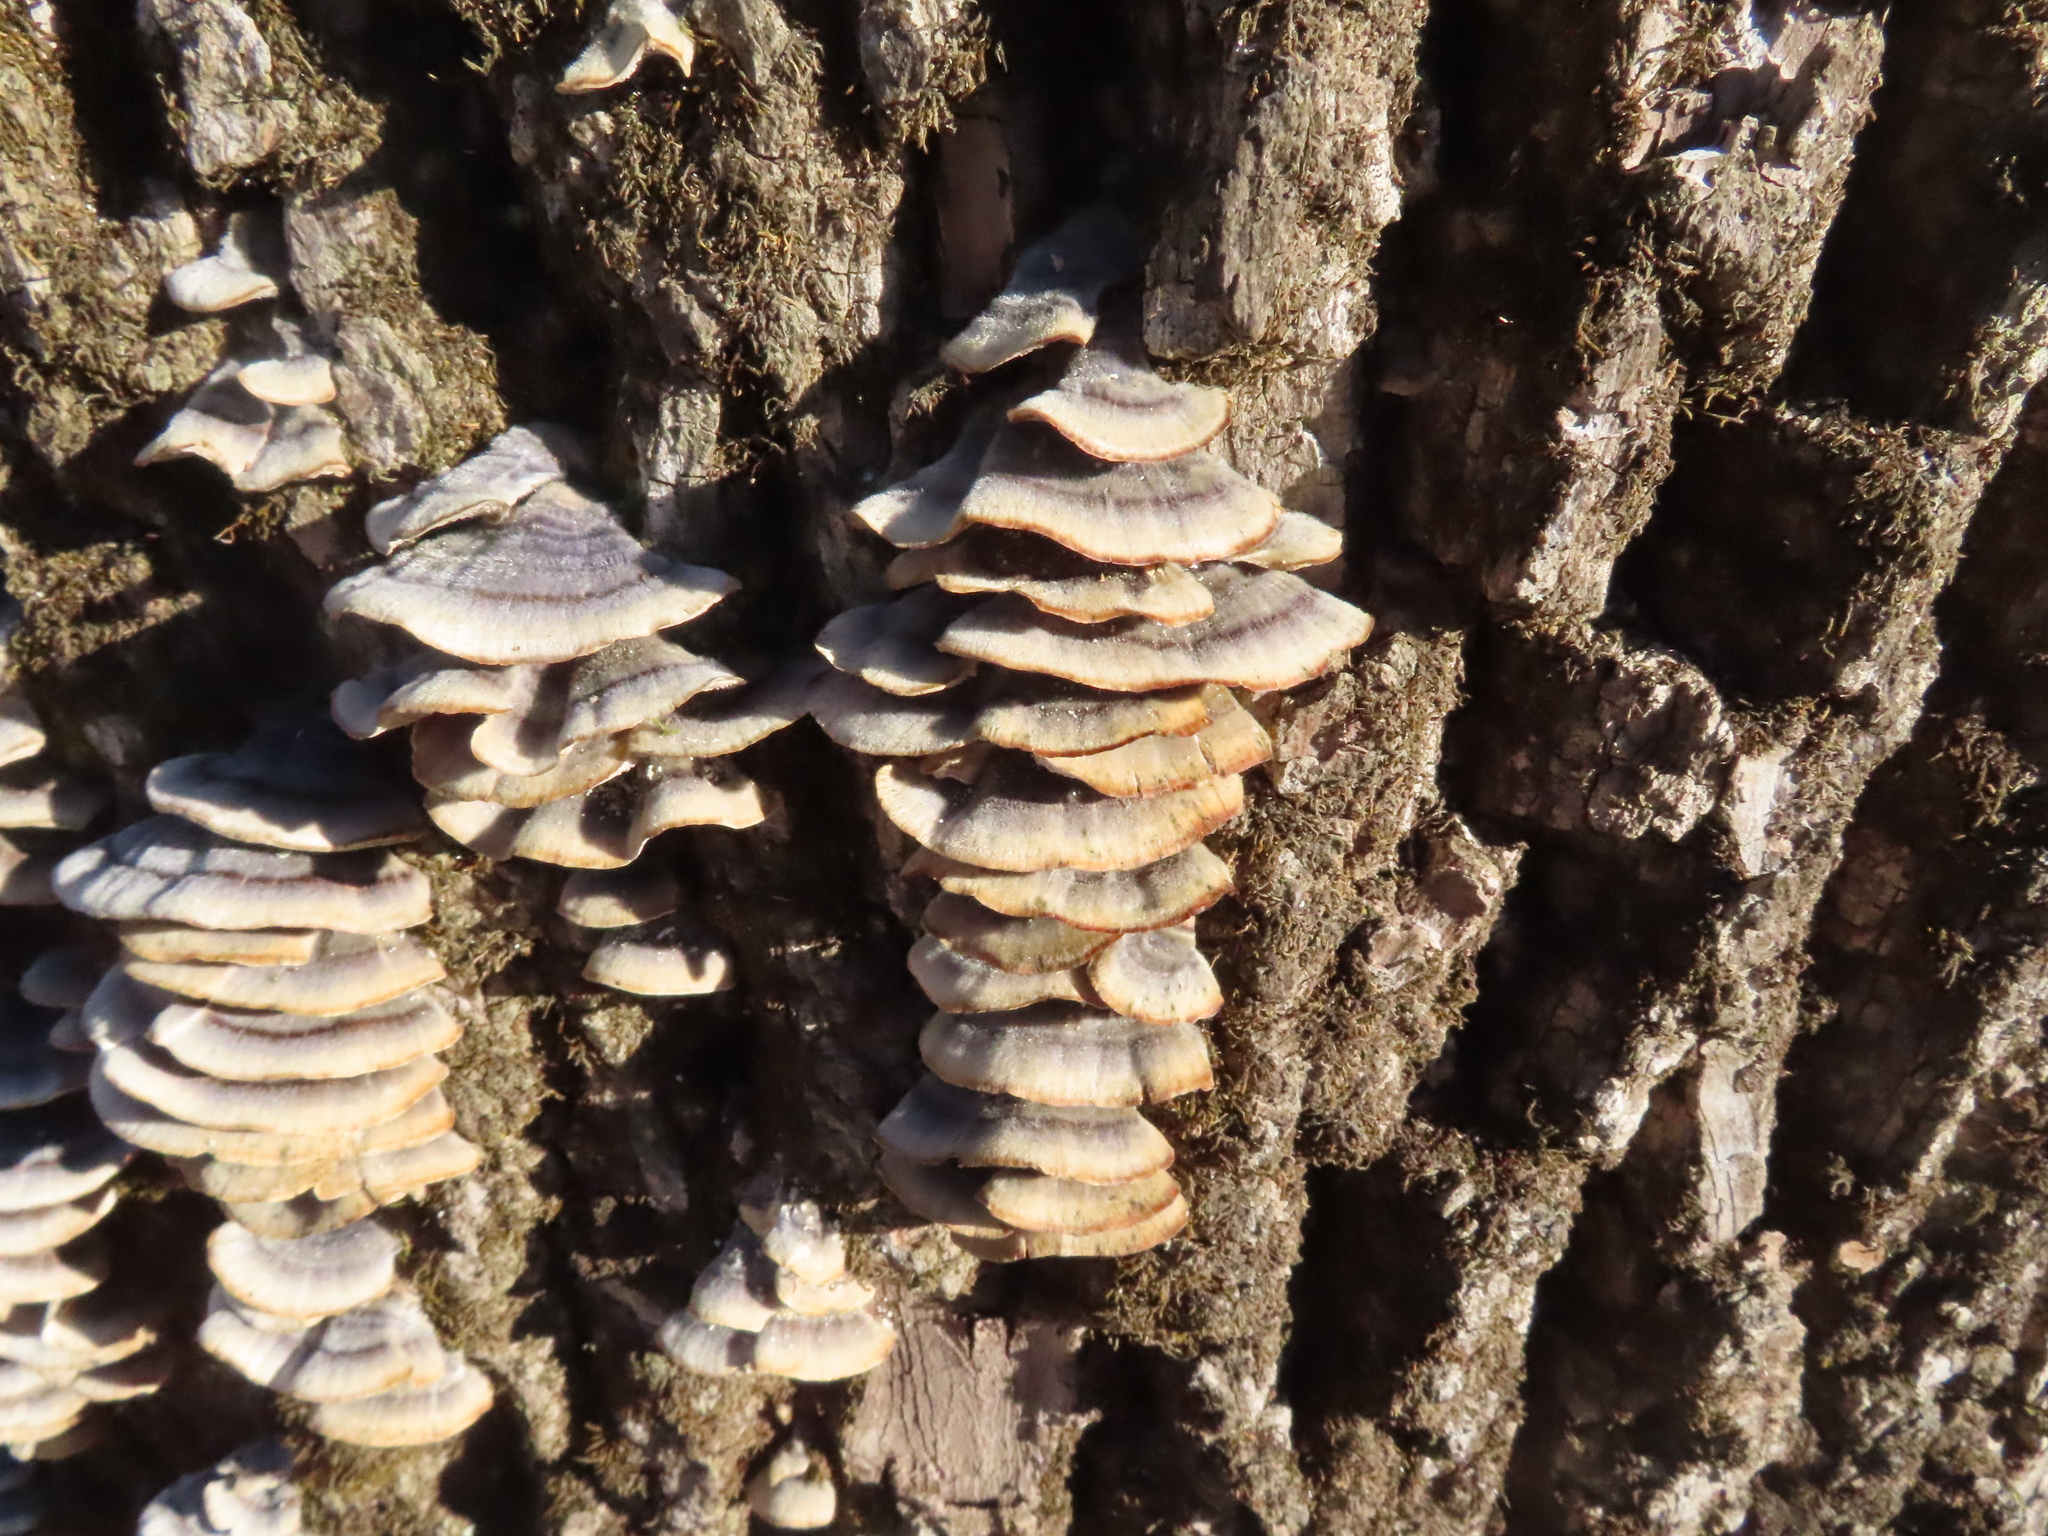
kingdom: Fungi
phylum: Basidiomycota
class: Agaricomycetes
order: Polyporales
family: Polyporaceae
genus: Trametes
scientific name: Trametes versicolor
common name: Turkeytail
